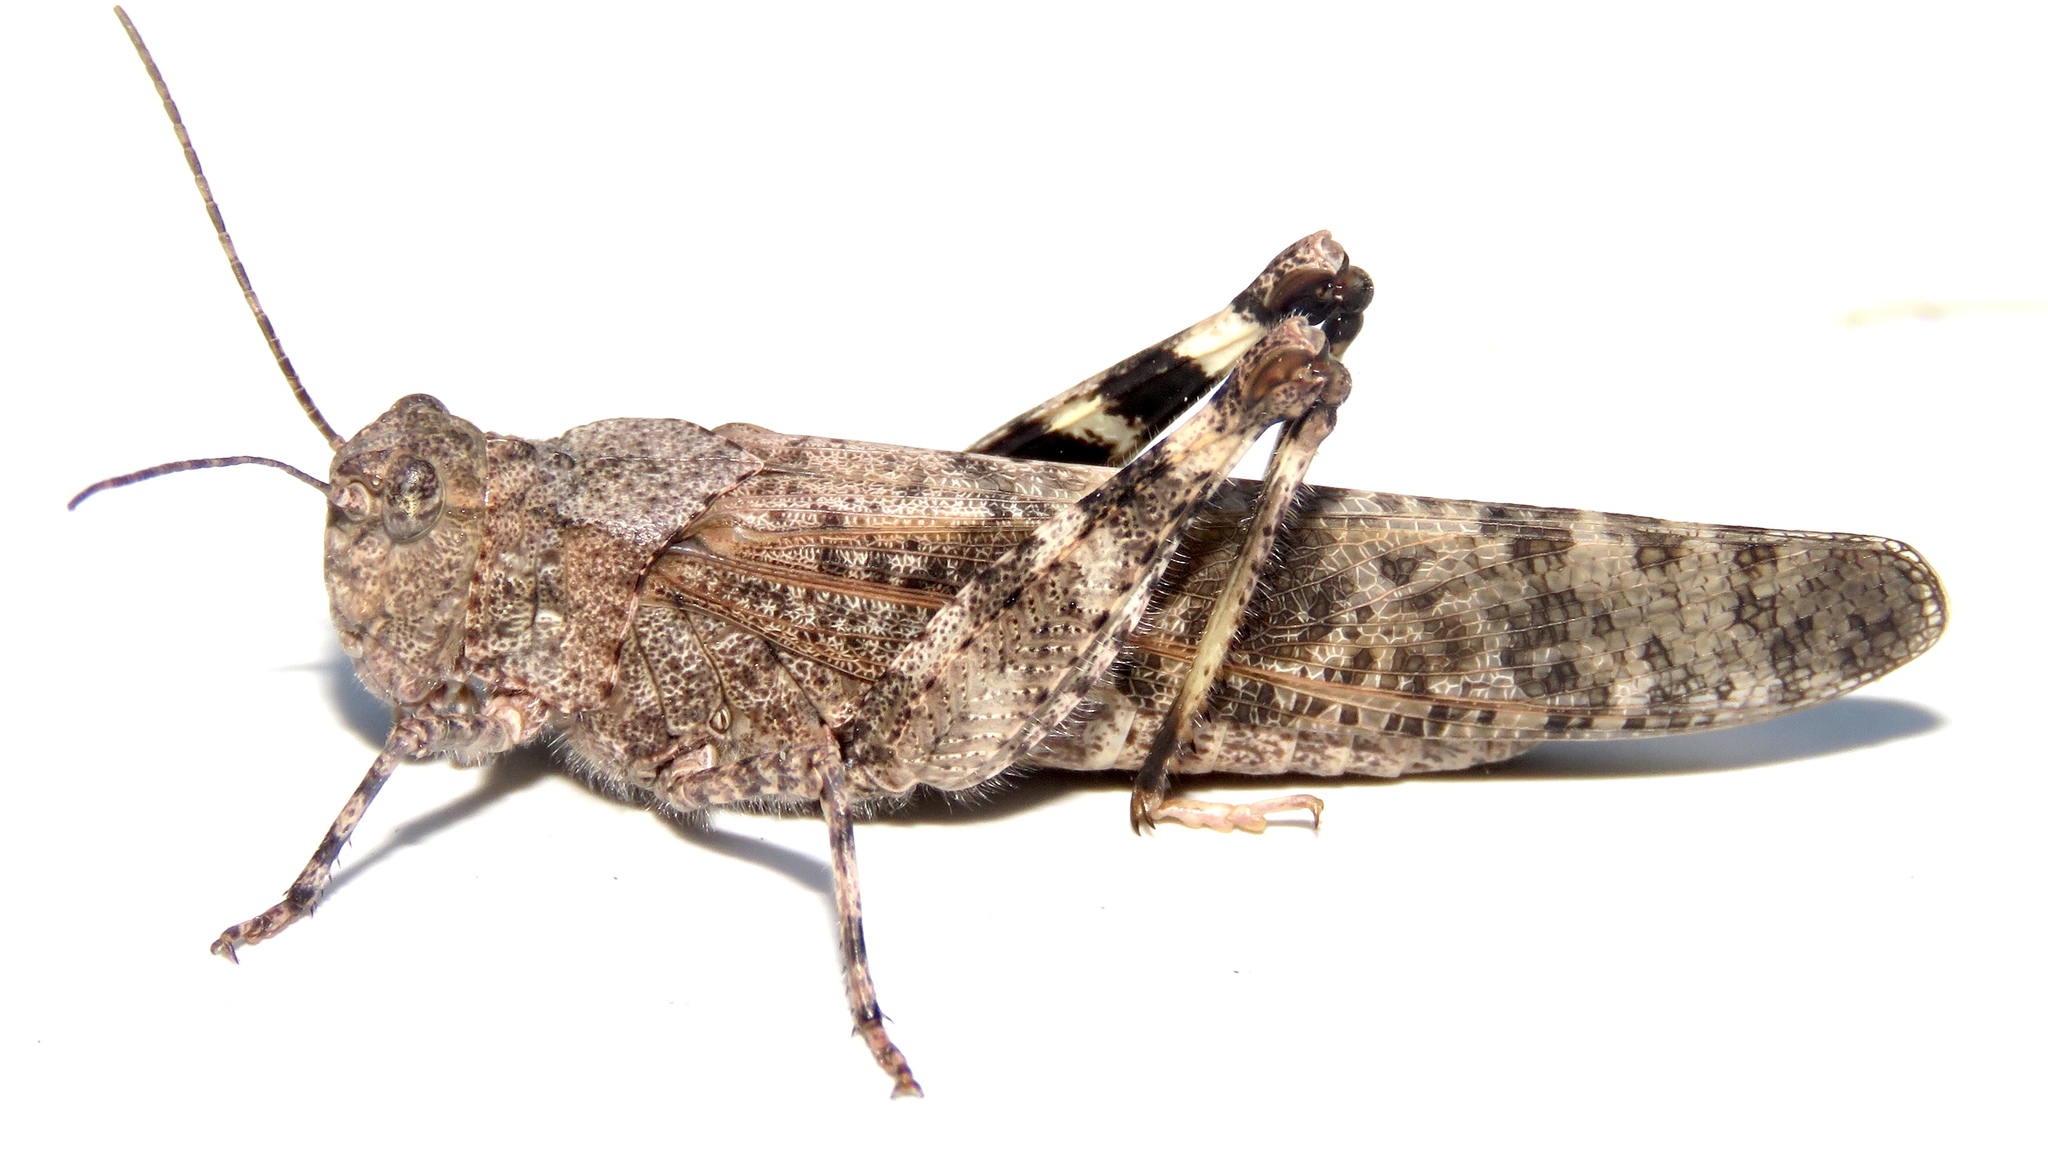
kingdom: Animalia
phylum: Arthropoda
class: Insecta
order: Orthoptera
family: Acrididae
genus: Trimerotropis
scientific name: Trimerotropis verruculata
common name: Crackling forest grasshopper
